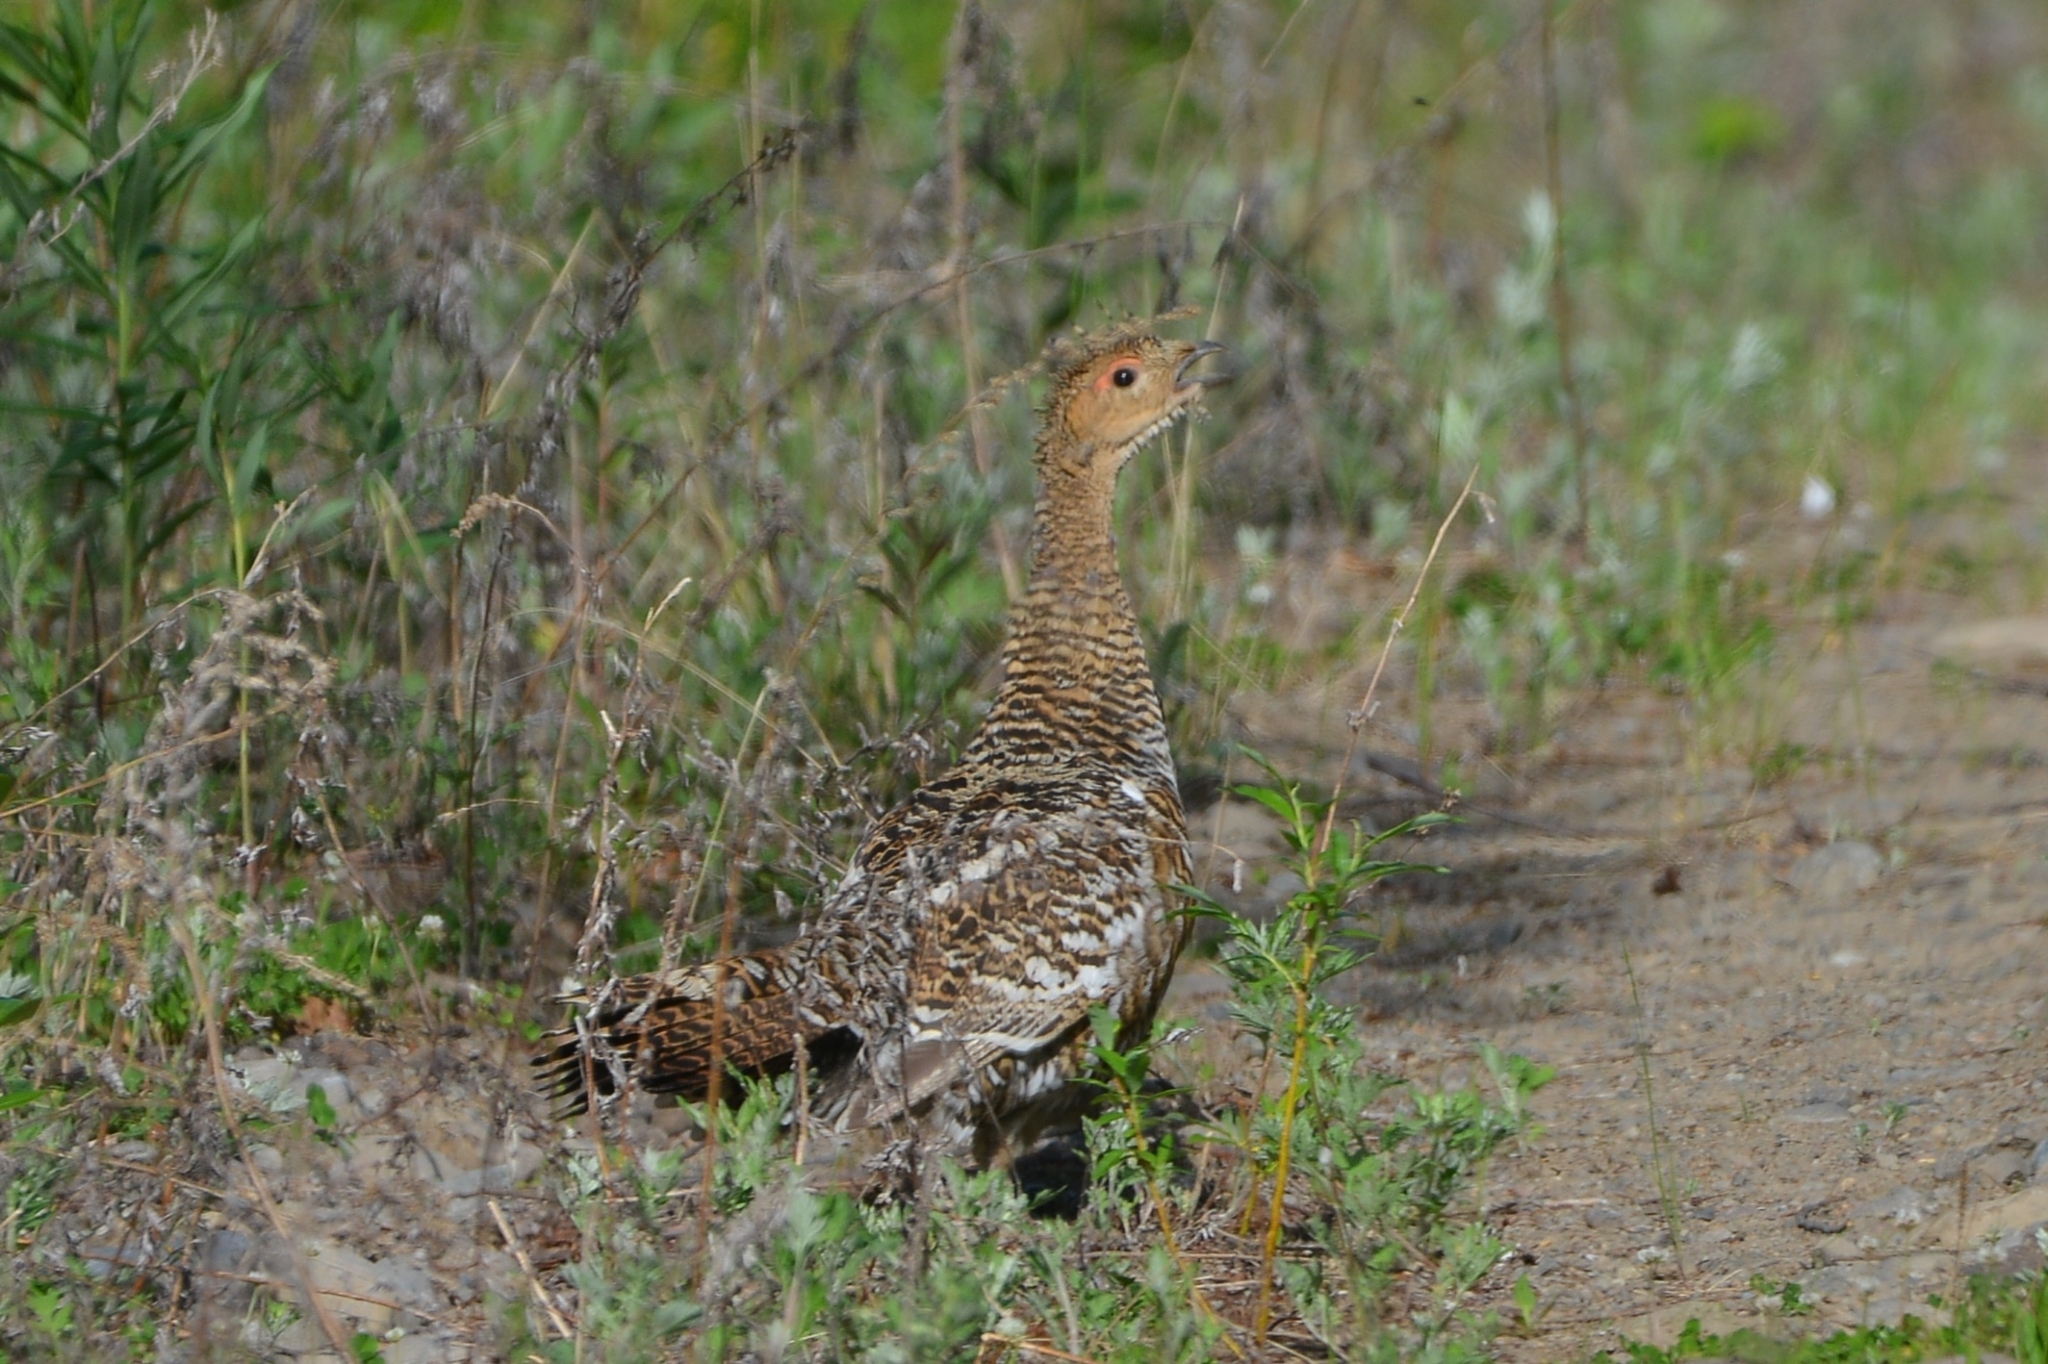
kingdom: Animalia
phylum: Chordata
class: Aves
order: Galliformes
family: Phasianidae
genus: Tetrao
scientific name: Tetrao urogalloides
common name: Black-billed capercaillie
